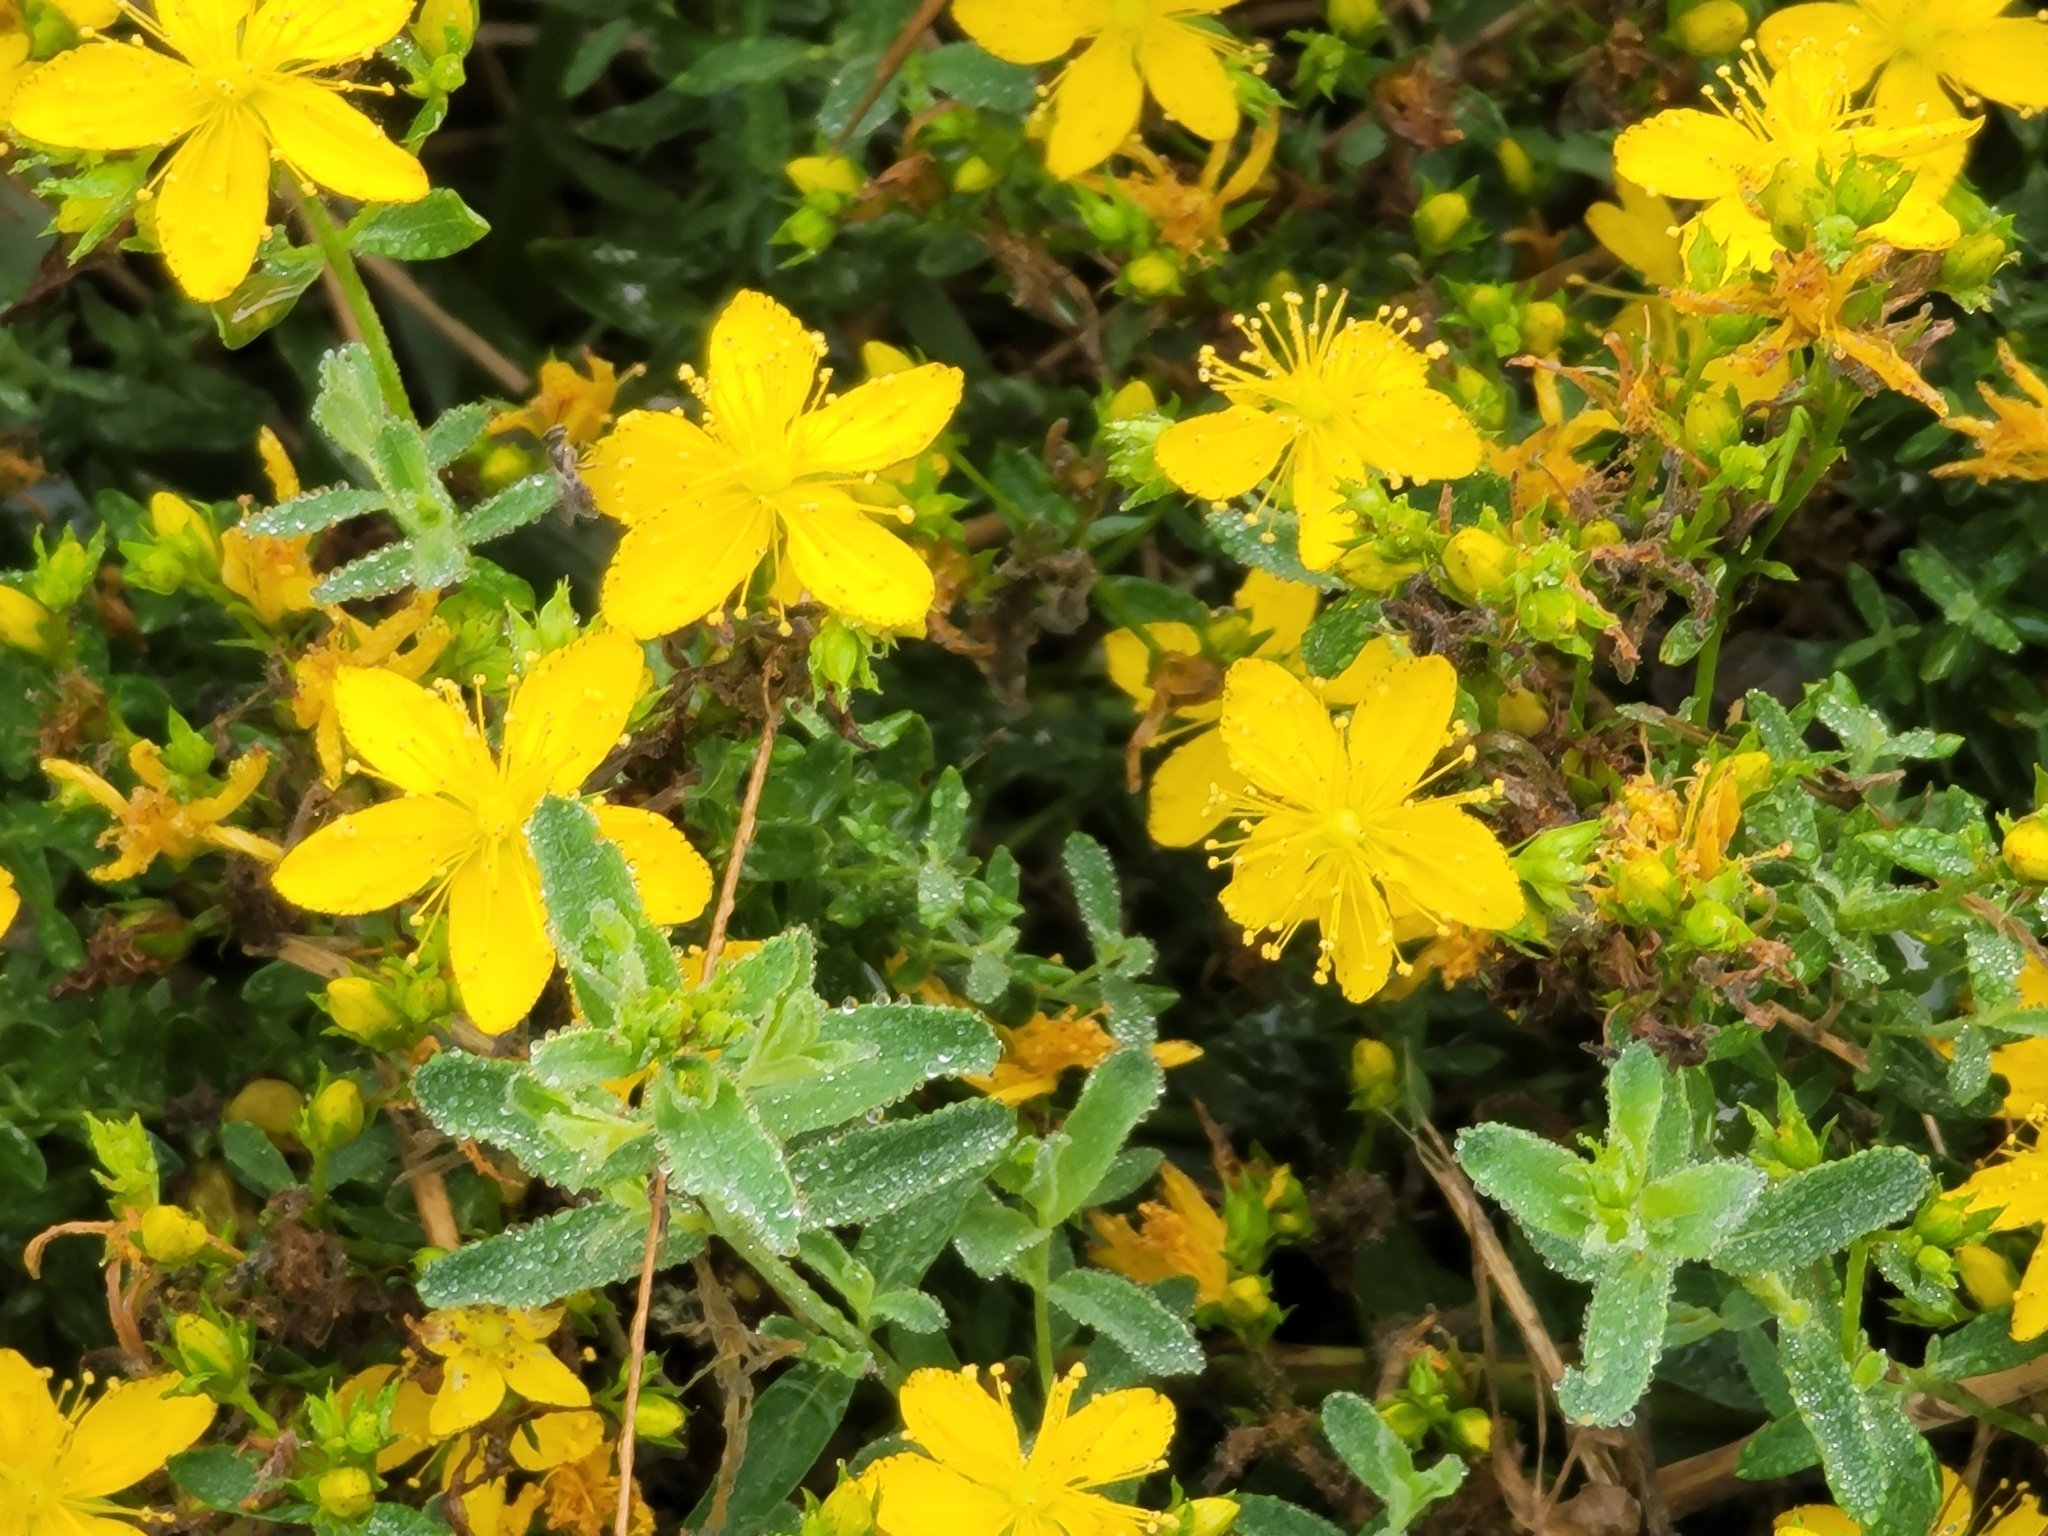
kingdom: Plantae
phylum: Tracheophyta
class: Magnoliopsida
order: Malpighiales
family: Hypericaceae
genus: Hypericum
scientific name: Hypericum perforatum
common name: Common st. johnswort
